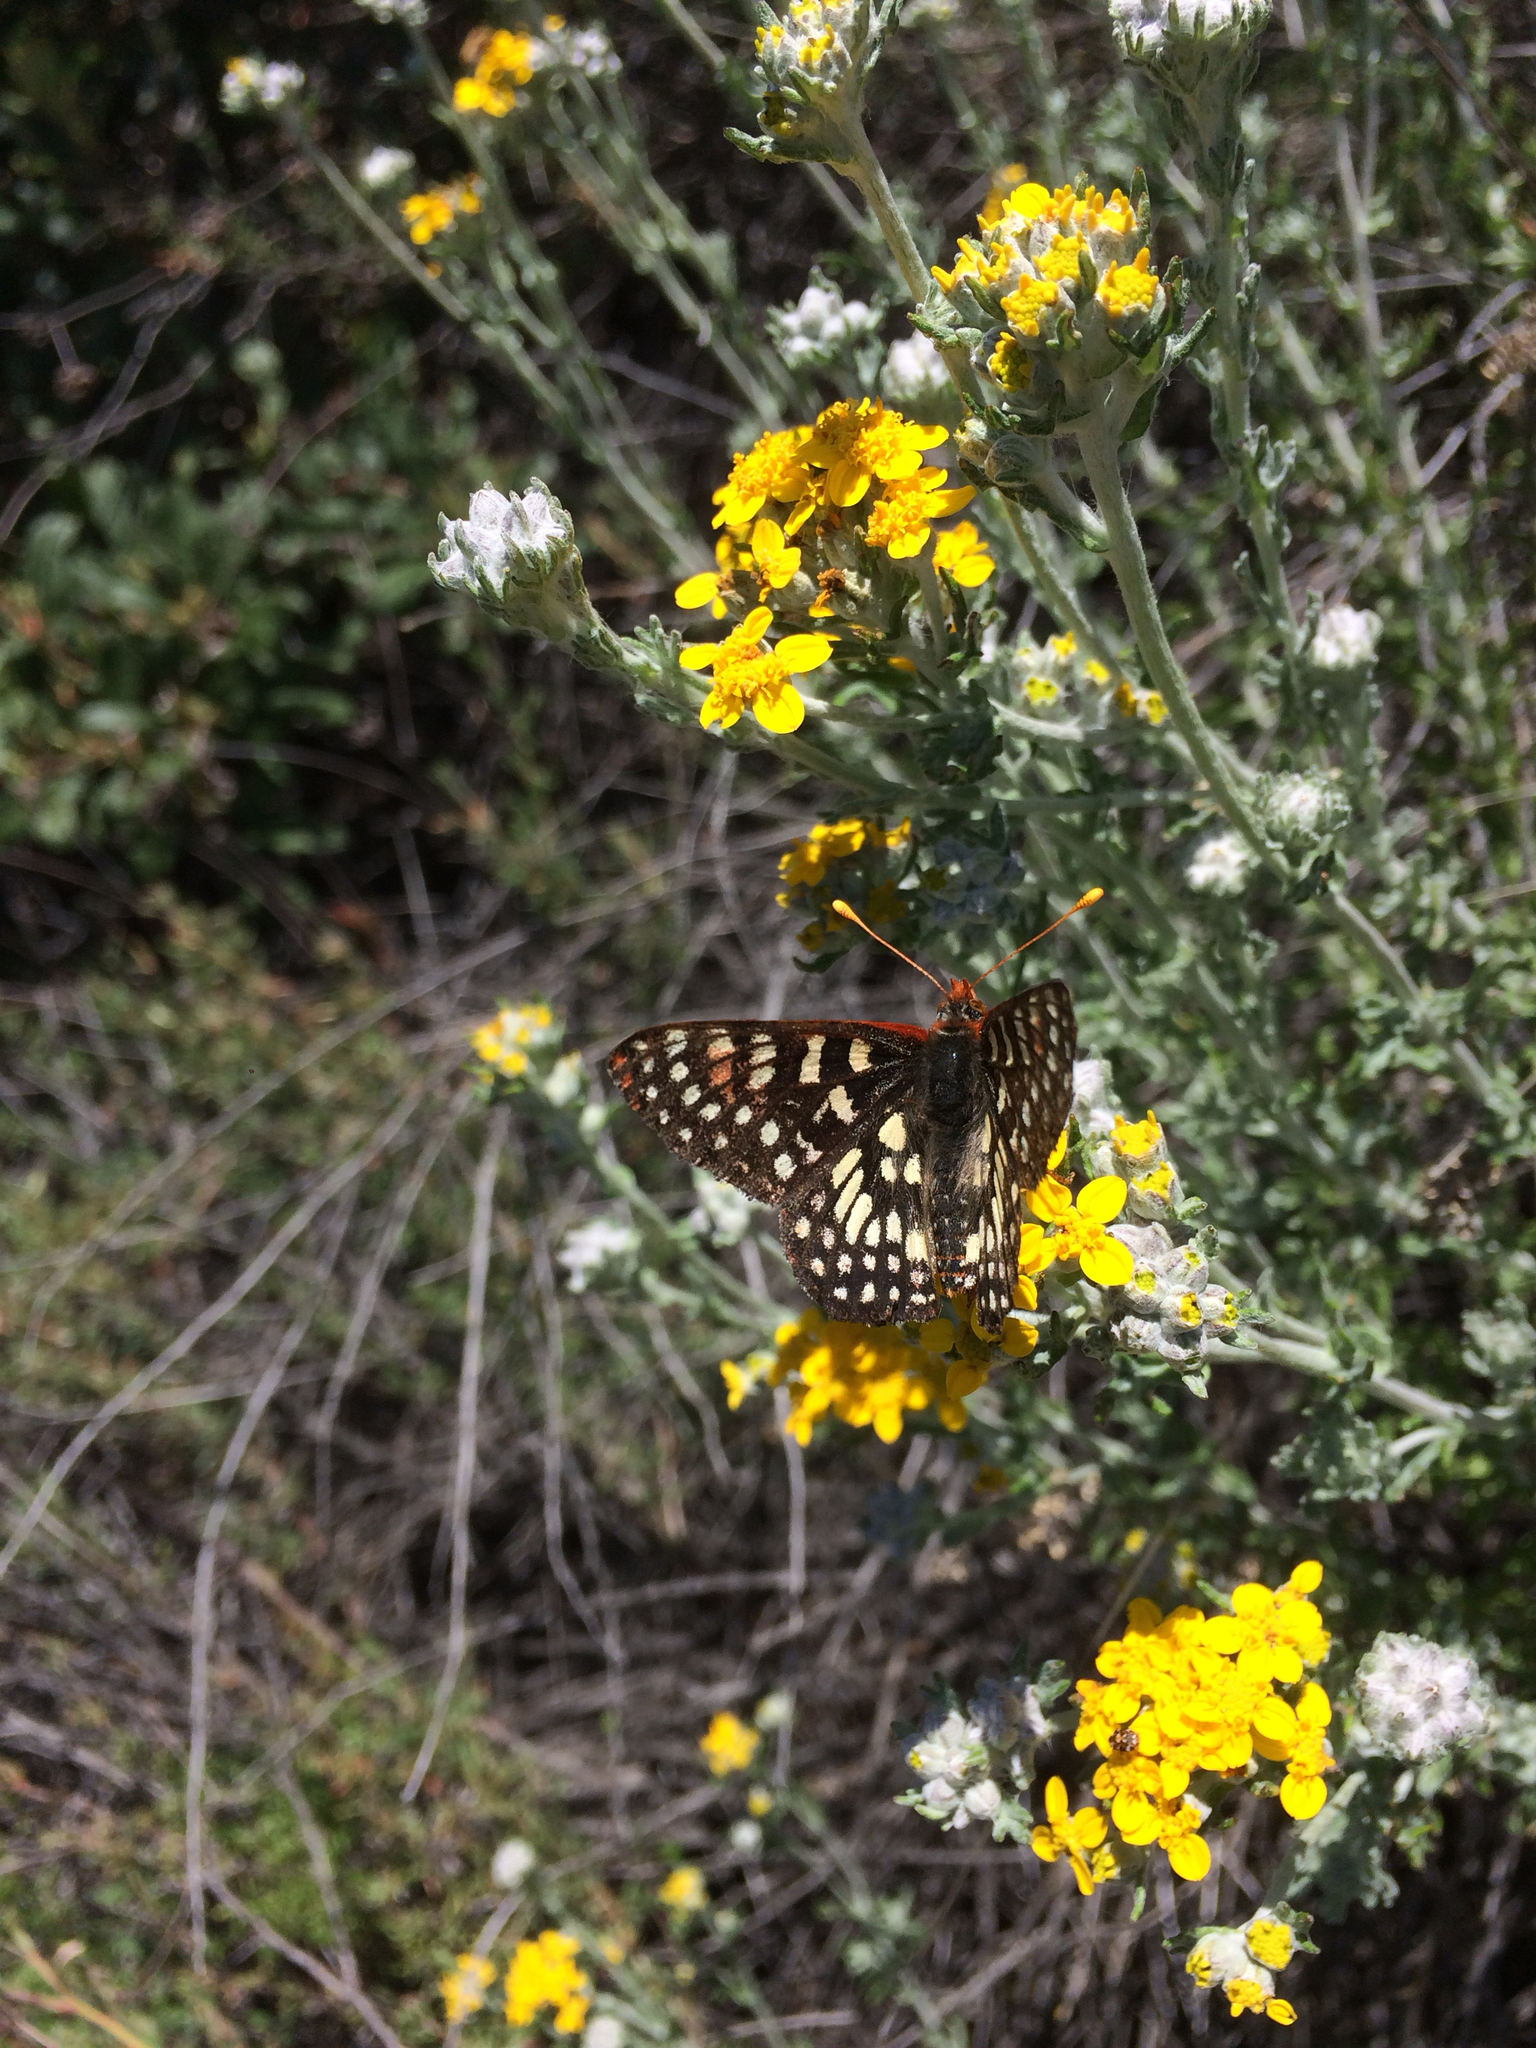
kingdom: Animalia
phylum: Arthropoda
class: Insecta
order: Lepidoptera
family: Nymphalidae
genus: Occidryas
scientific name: Occidryas chalcedona
